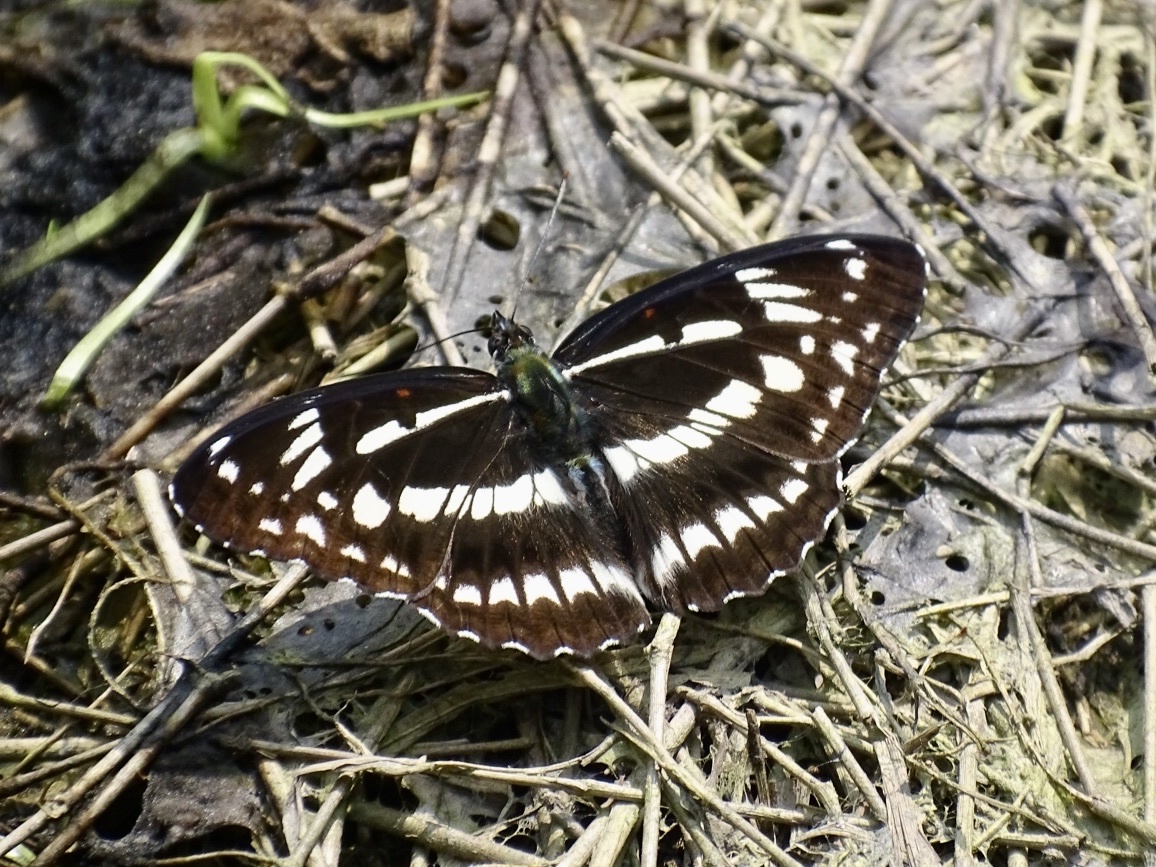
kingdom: Animalia
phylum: Arthropoda
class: Insecta
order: Lepidoptera
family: Nymphalidae
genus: Limenitis
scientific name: Limenitis sulpitia
